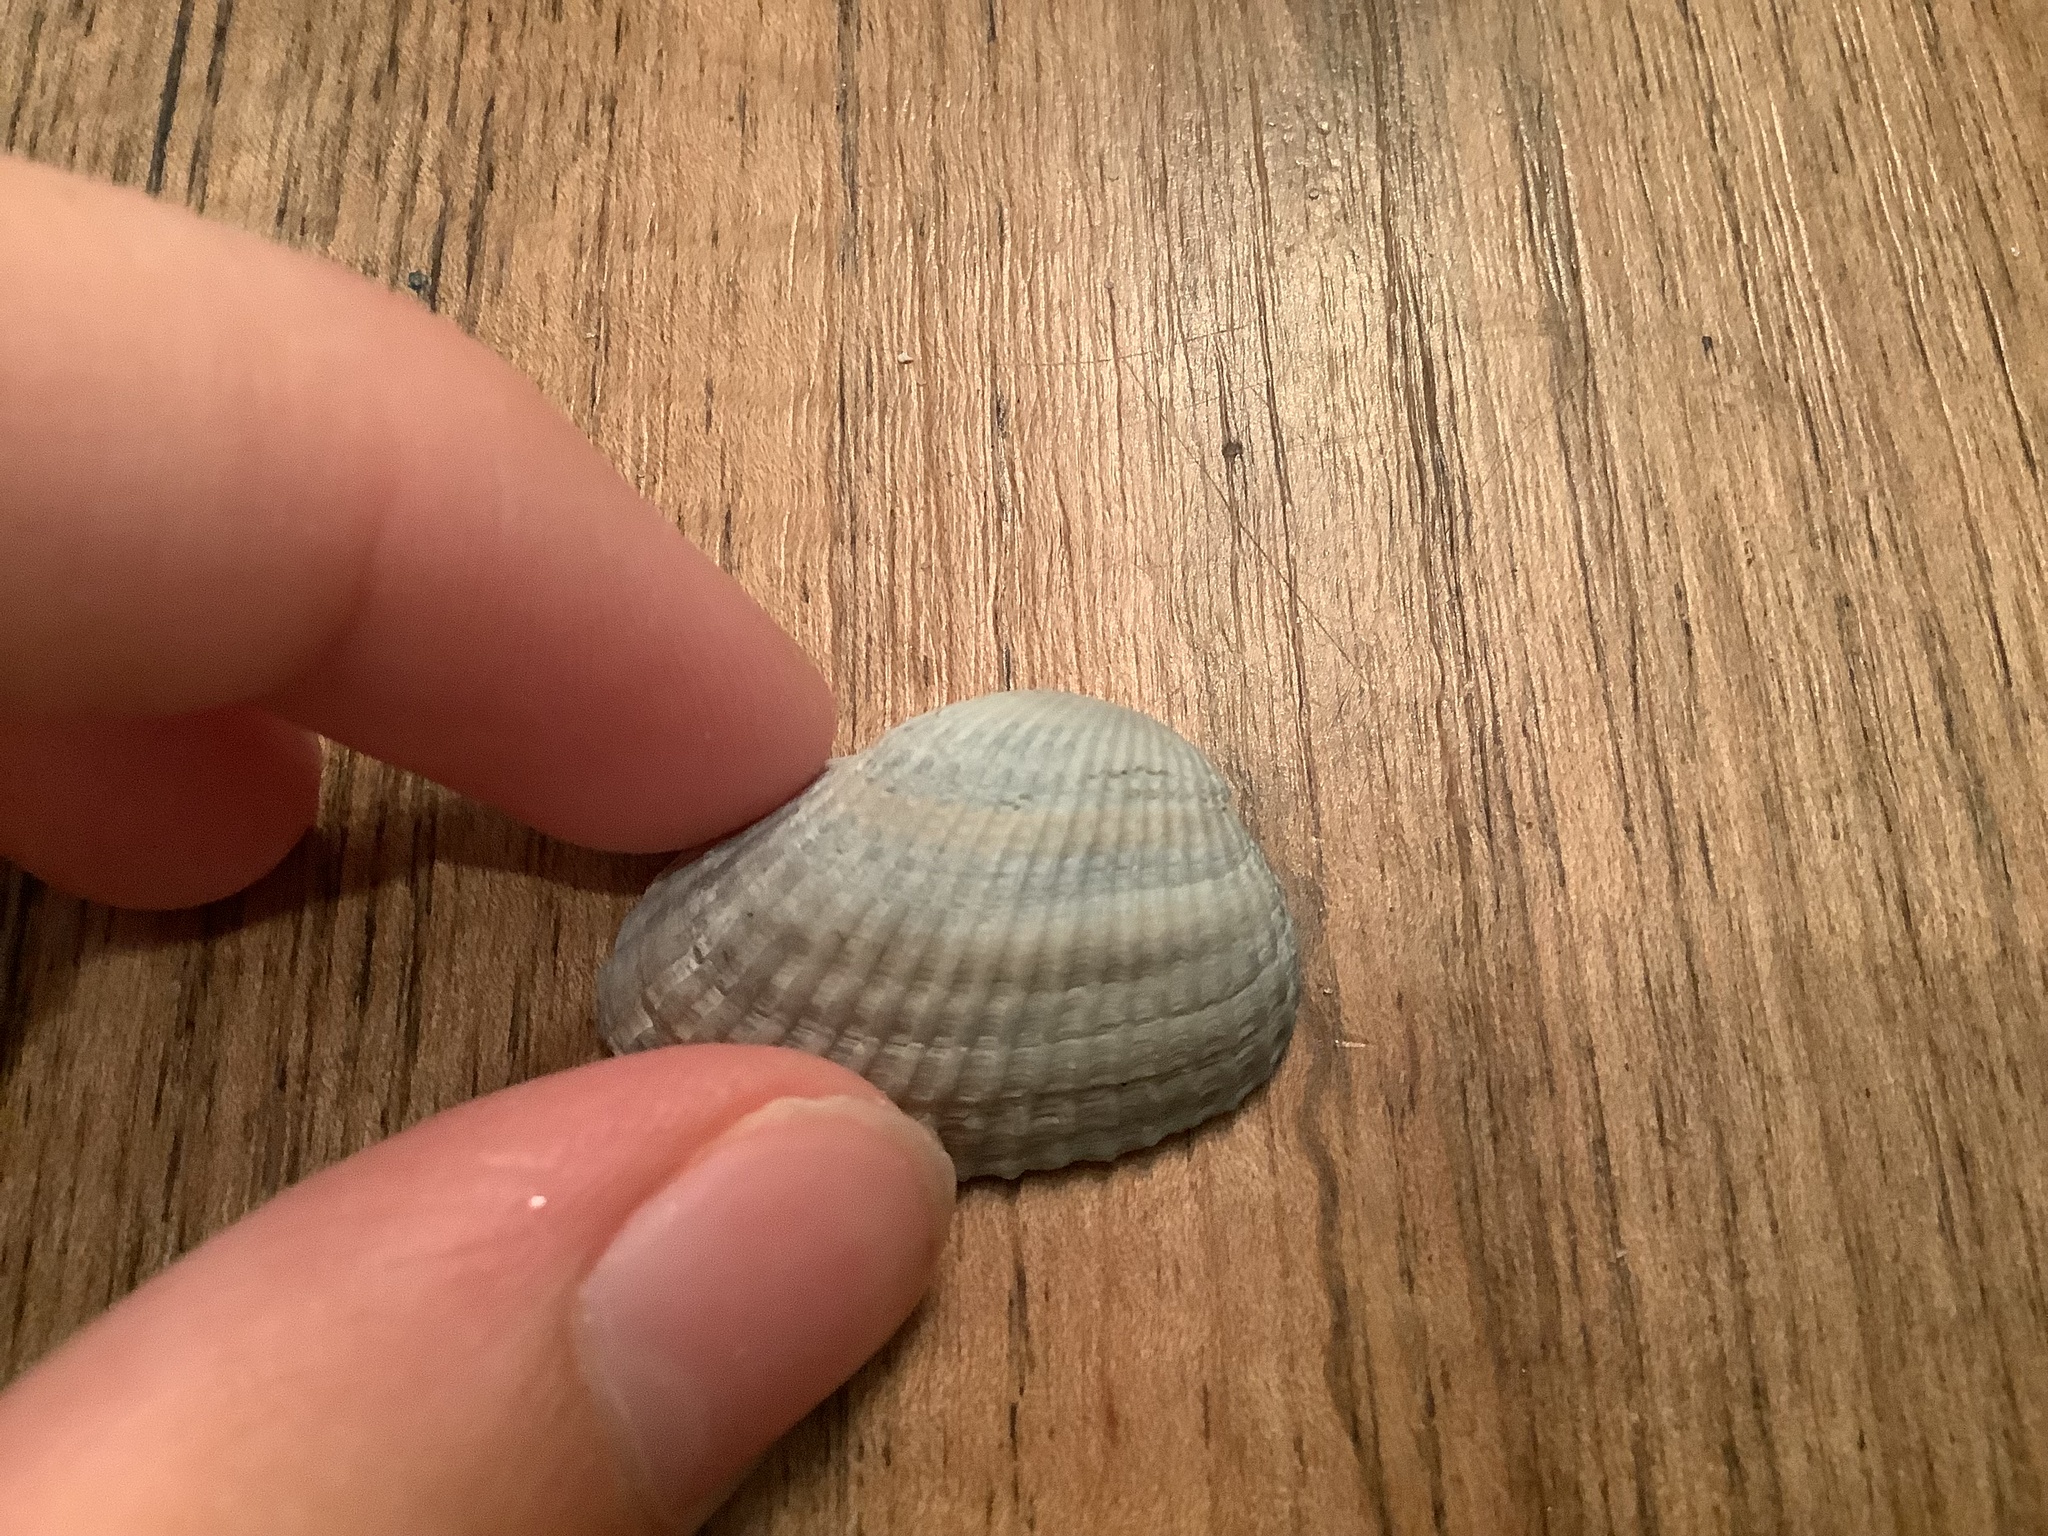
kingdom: Animalia
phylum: Mollusca
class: Bivalvia
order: Arcida
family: Noetiidae
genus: Noetia
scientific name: Noetia ponderosa
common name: Ponderous ark
